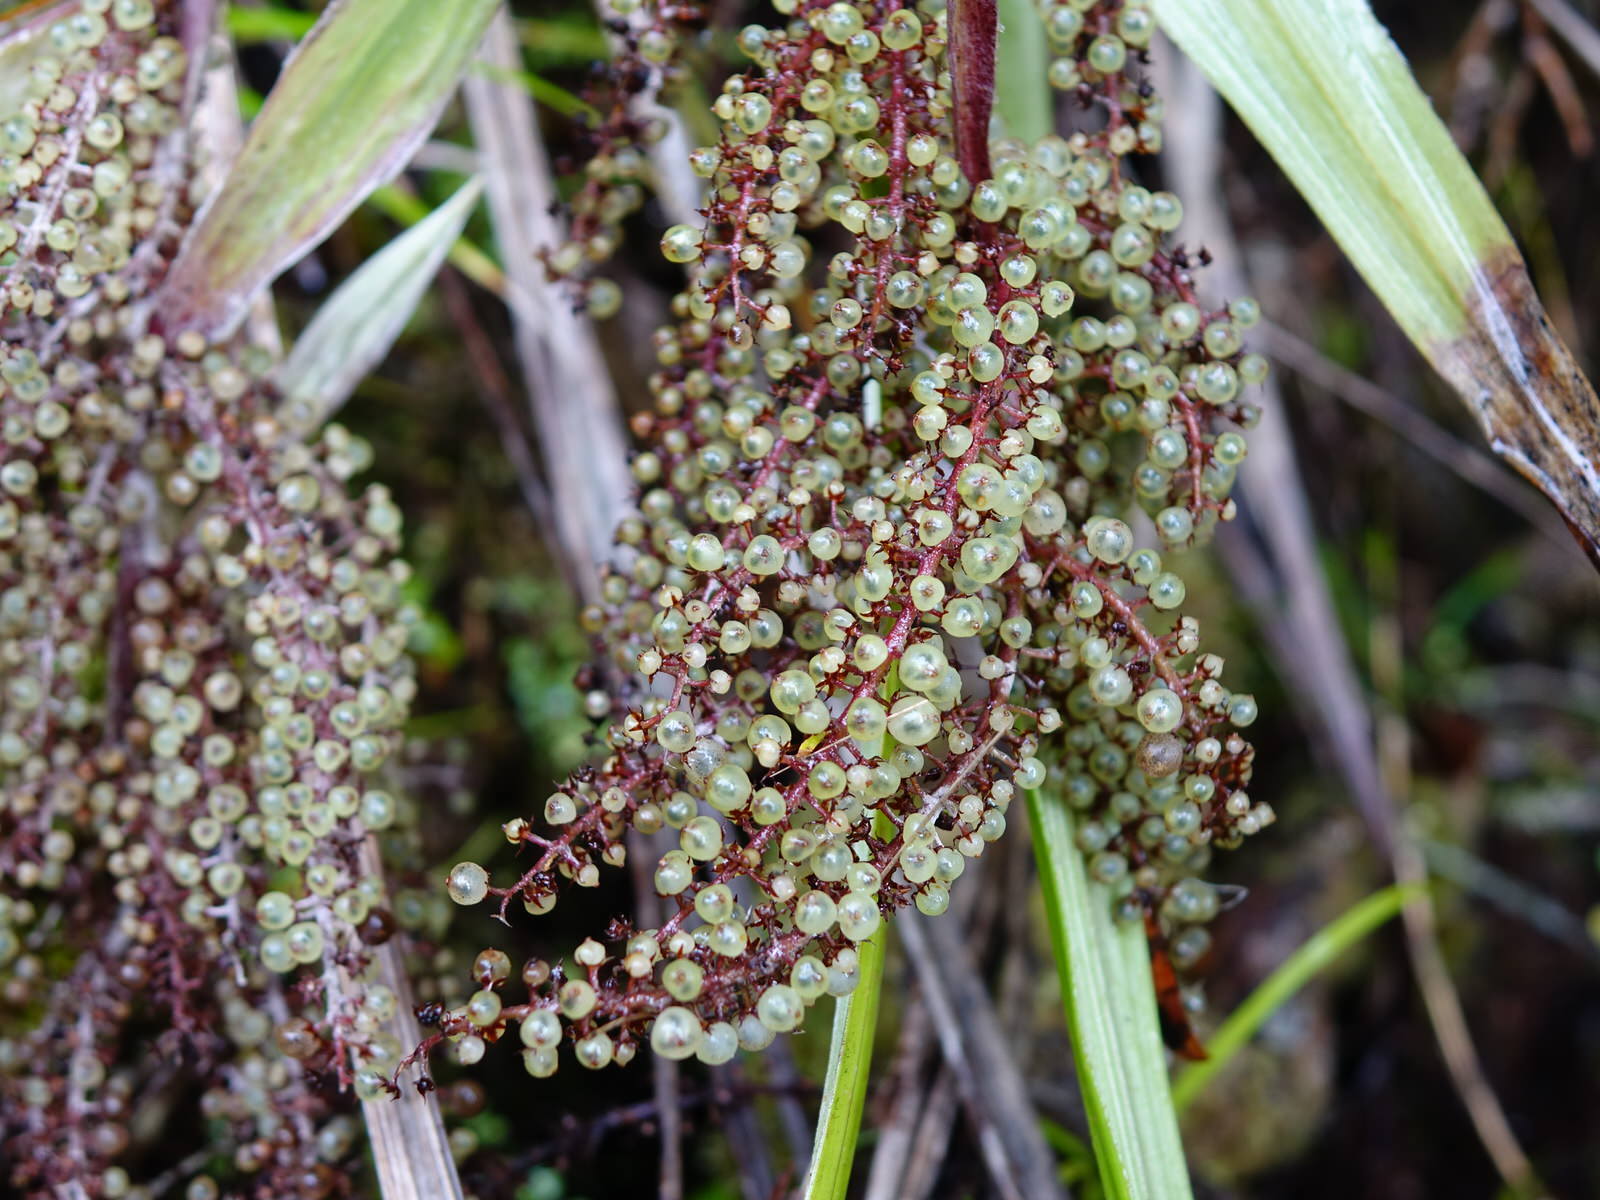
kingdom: Plantae
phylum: Tracheophyta
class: Liliopsida
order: Asparagales
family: Asteliaceae
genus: Astelia
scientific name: Astelia trinervia
